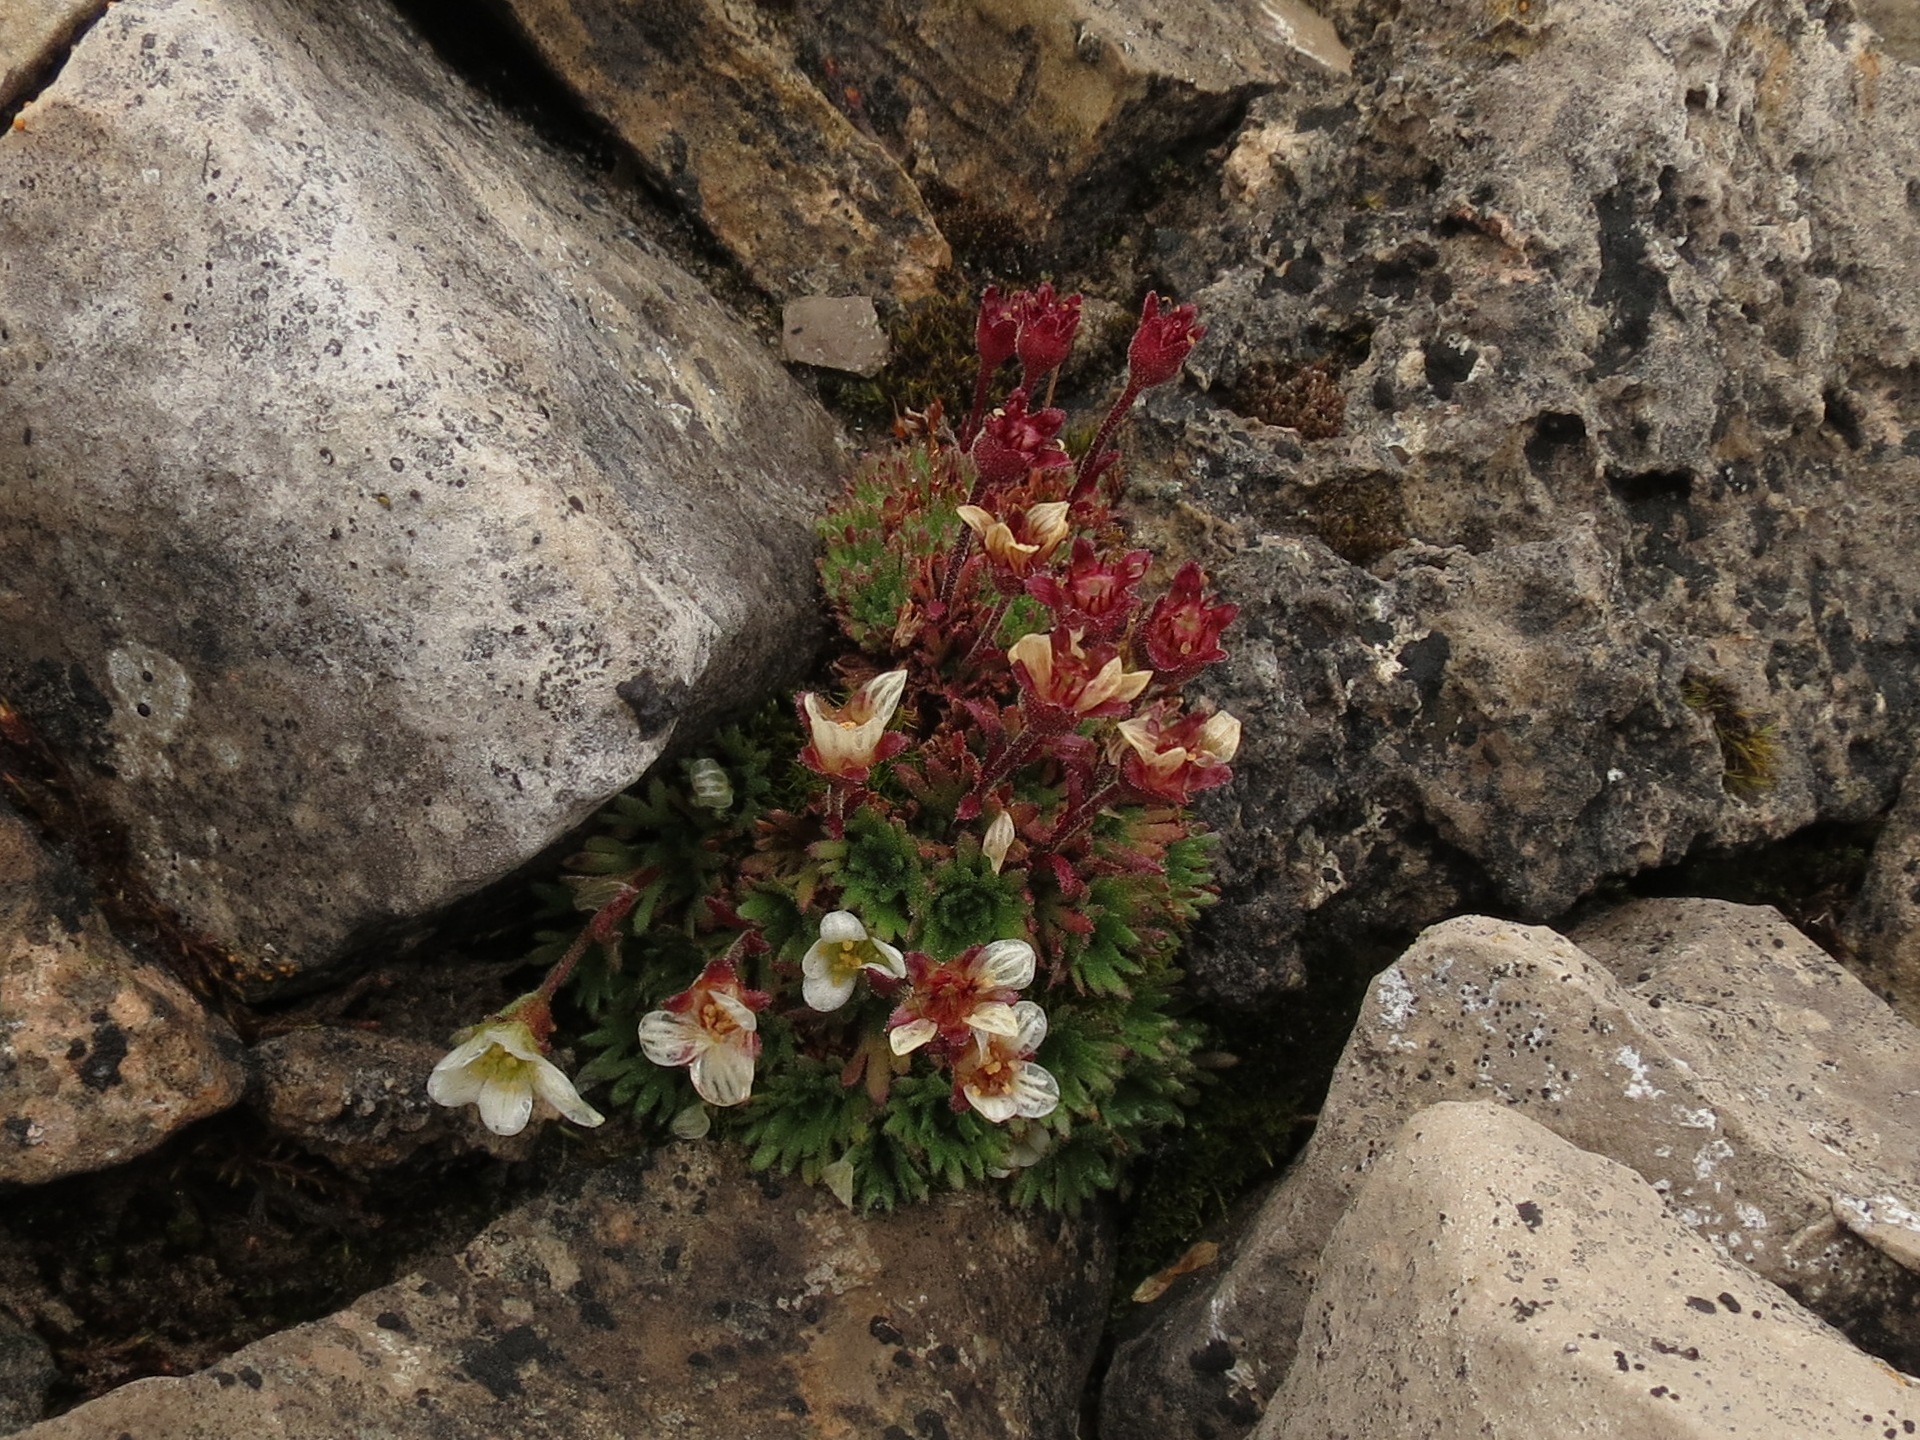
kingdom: Plantae
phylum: Tracheophyta
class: Magnoliopsida
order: Saxifragales
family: Saxifragaceae
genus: Saxifraga
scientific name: Saxifraga cespitosa
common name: Tufted saxifrage
